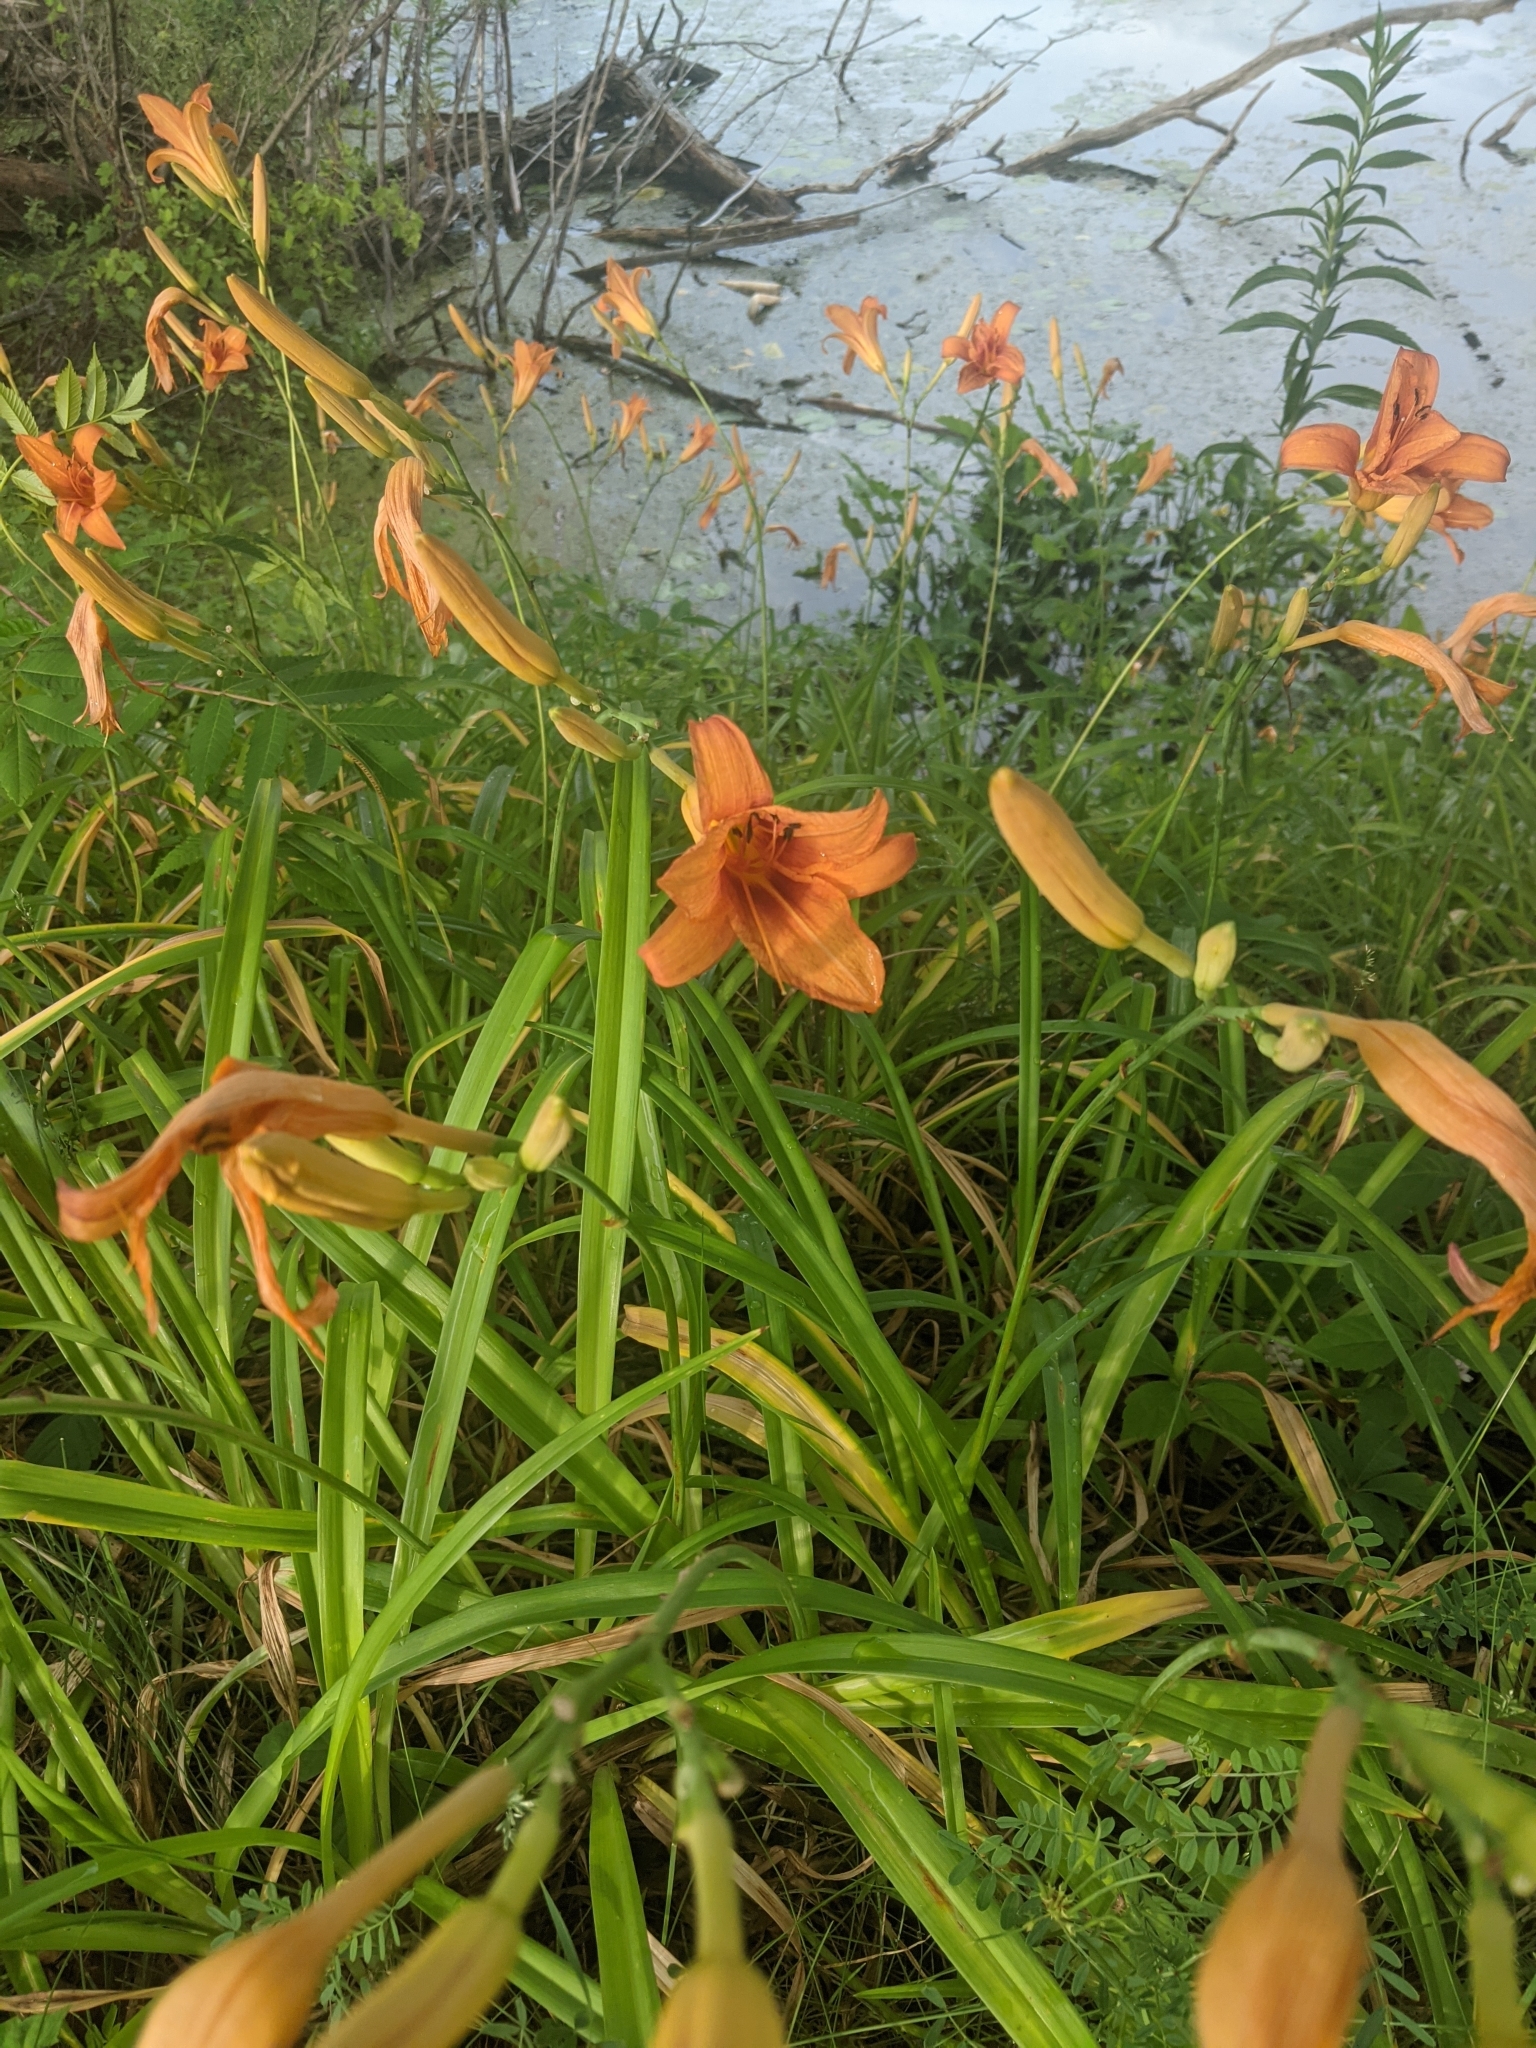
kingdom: Plantae
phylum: Tracheophyta
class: Liliopsida
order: Asparagales
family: Asphodelaceae
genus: Hemerocallis
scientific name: Hemerocallis fulva
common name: Orange day-lily
